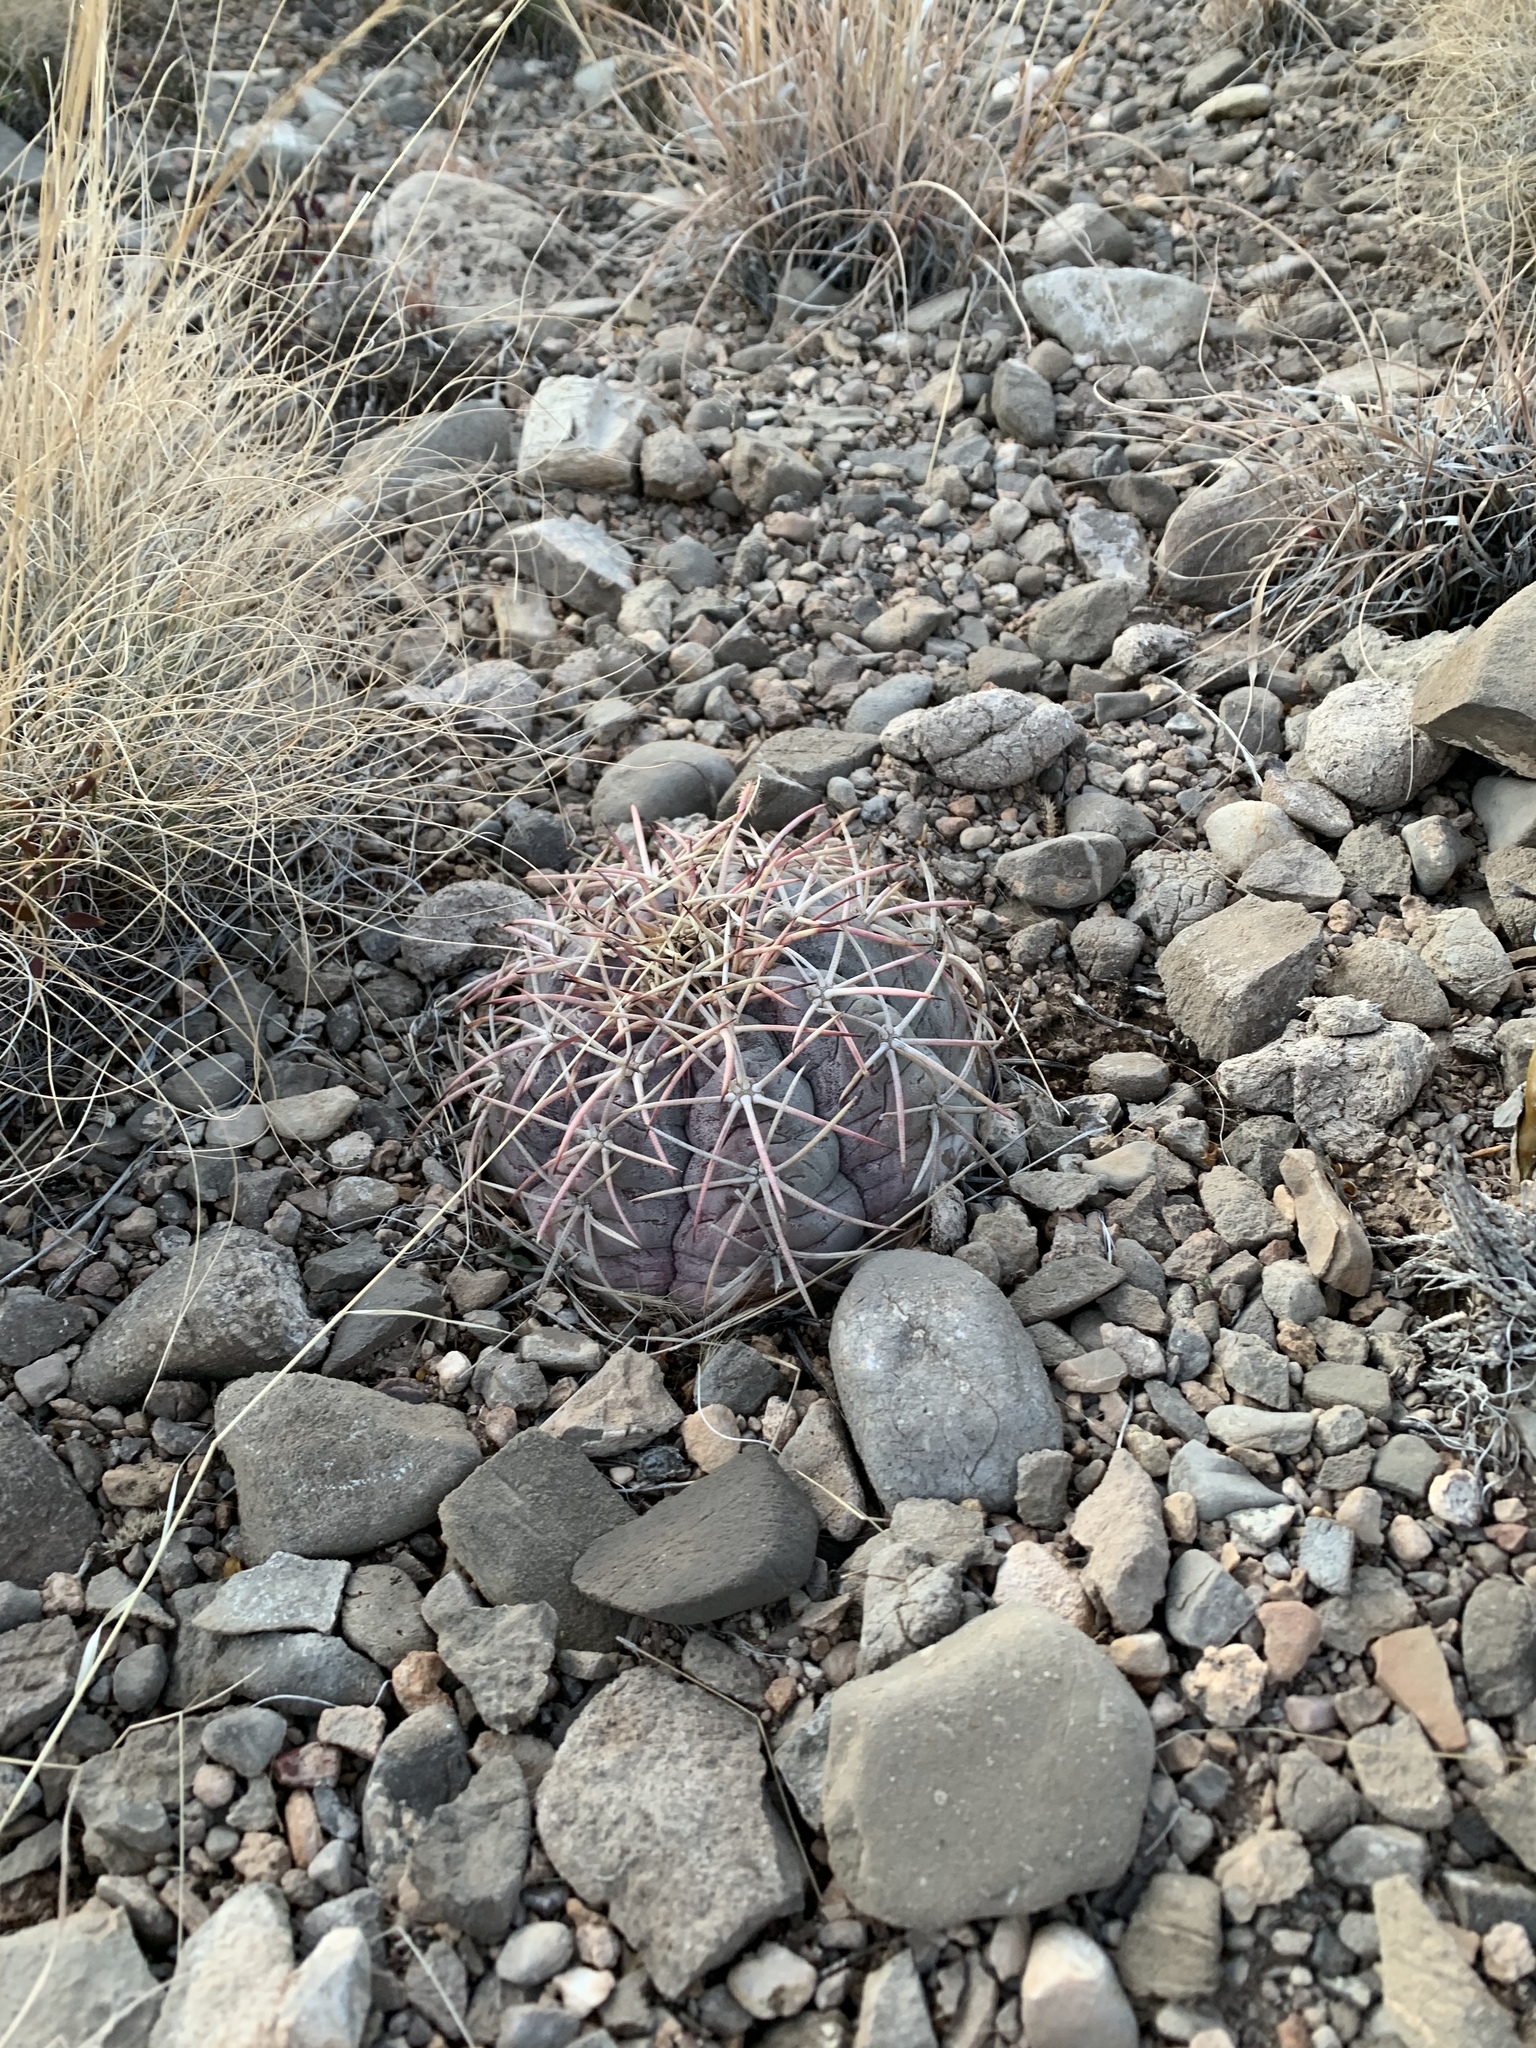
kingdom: Plantae
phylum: Tracheophyta
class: Magnoliopsida
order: Caryophyllales
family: Cactaceae
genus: Echinocactus
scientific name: Echinocactus horizonthalonius
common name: Devilshead
